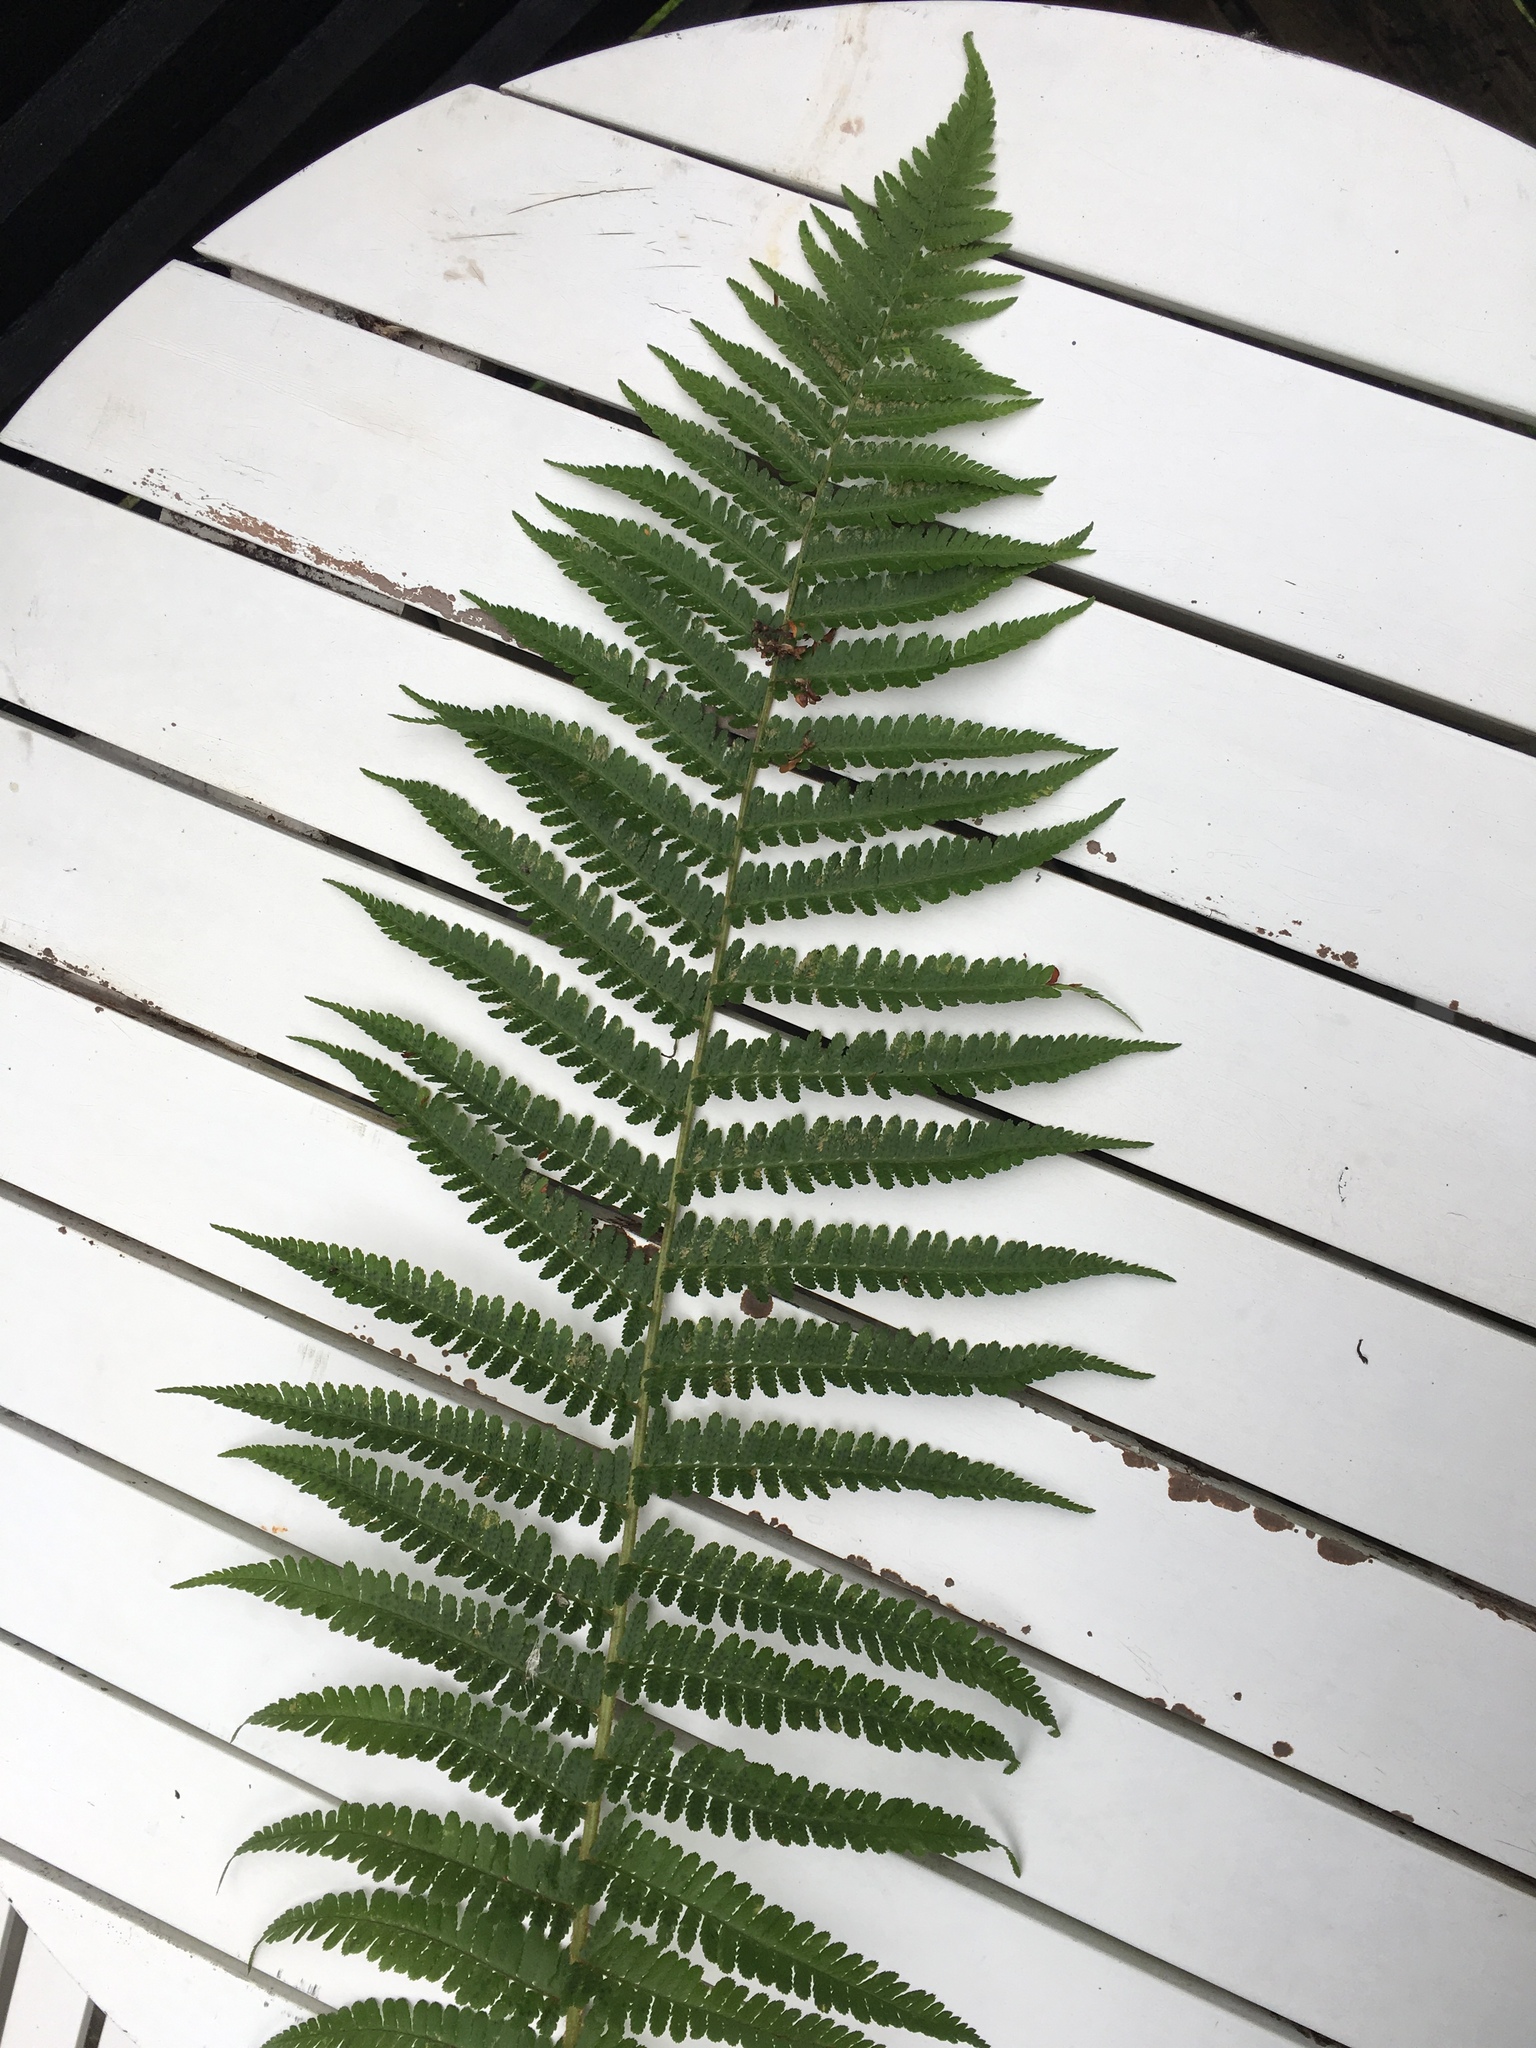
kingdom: Plantae
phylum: Tracheophyta
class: Polypodiopsida
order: Polypodiales
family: Dryopteridaceae
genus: Dryopteris
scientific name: Dryopteris filix-mas
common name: Male fern
